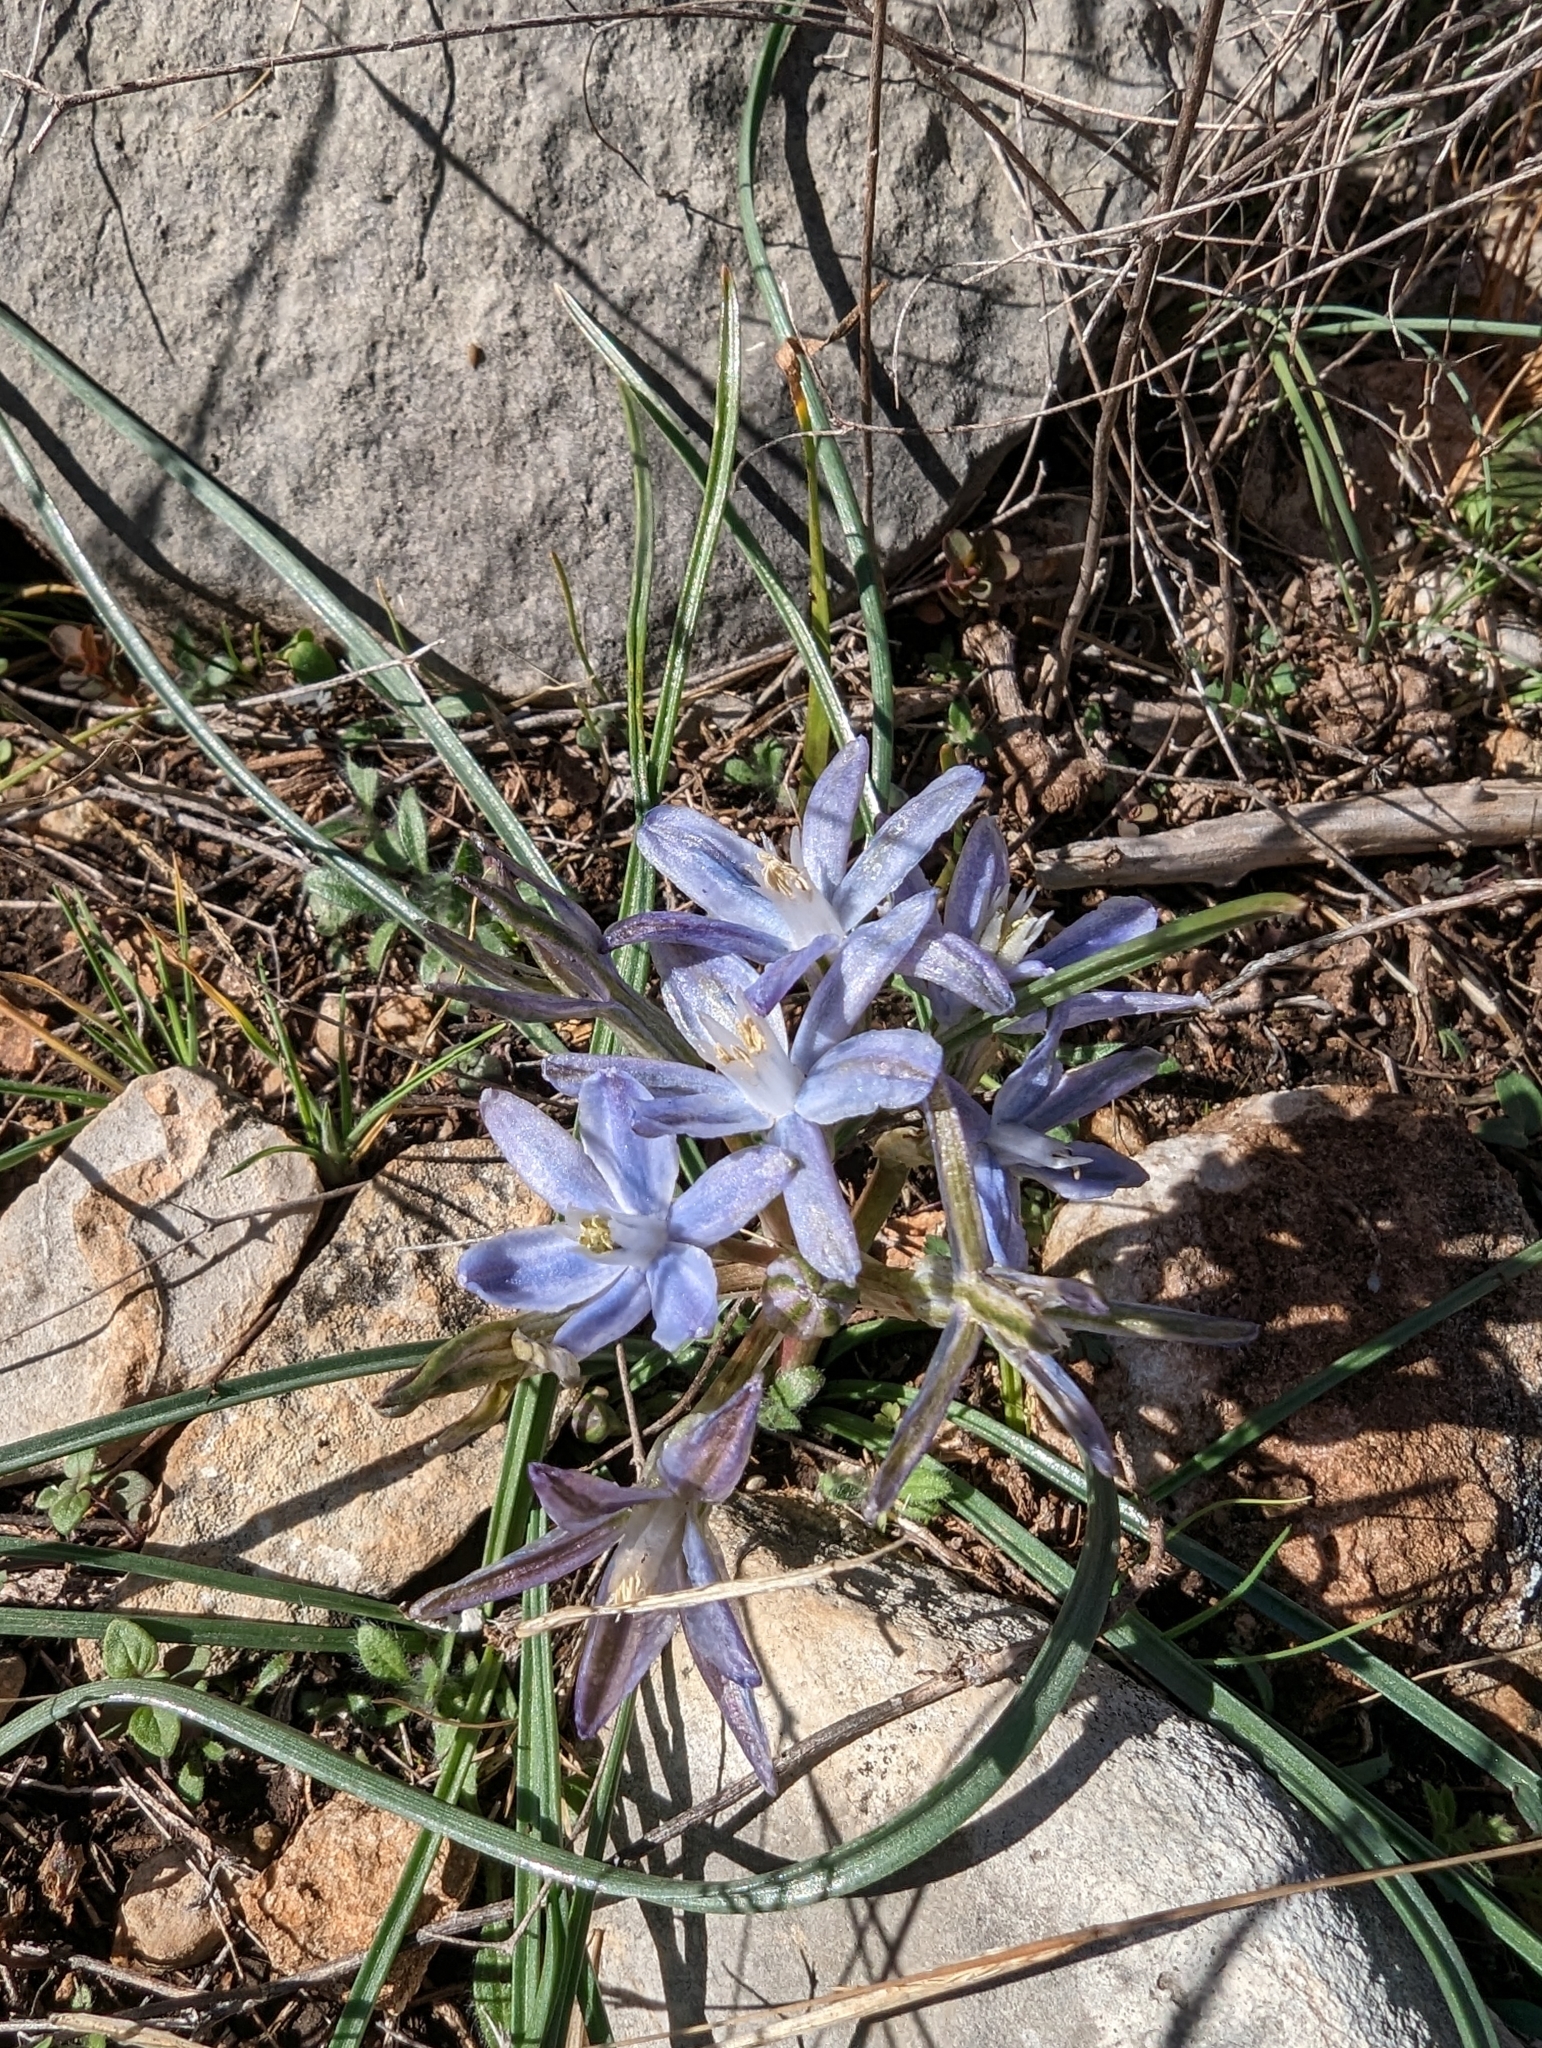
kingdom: Plantae
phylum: Tracheophyta
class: Liliopsida
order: Asparagales
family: Asparagaceae
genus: Androstephium
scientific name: Androstephium coeruleum
